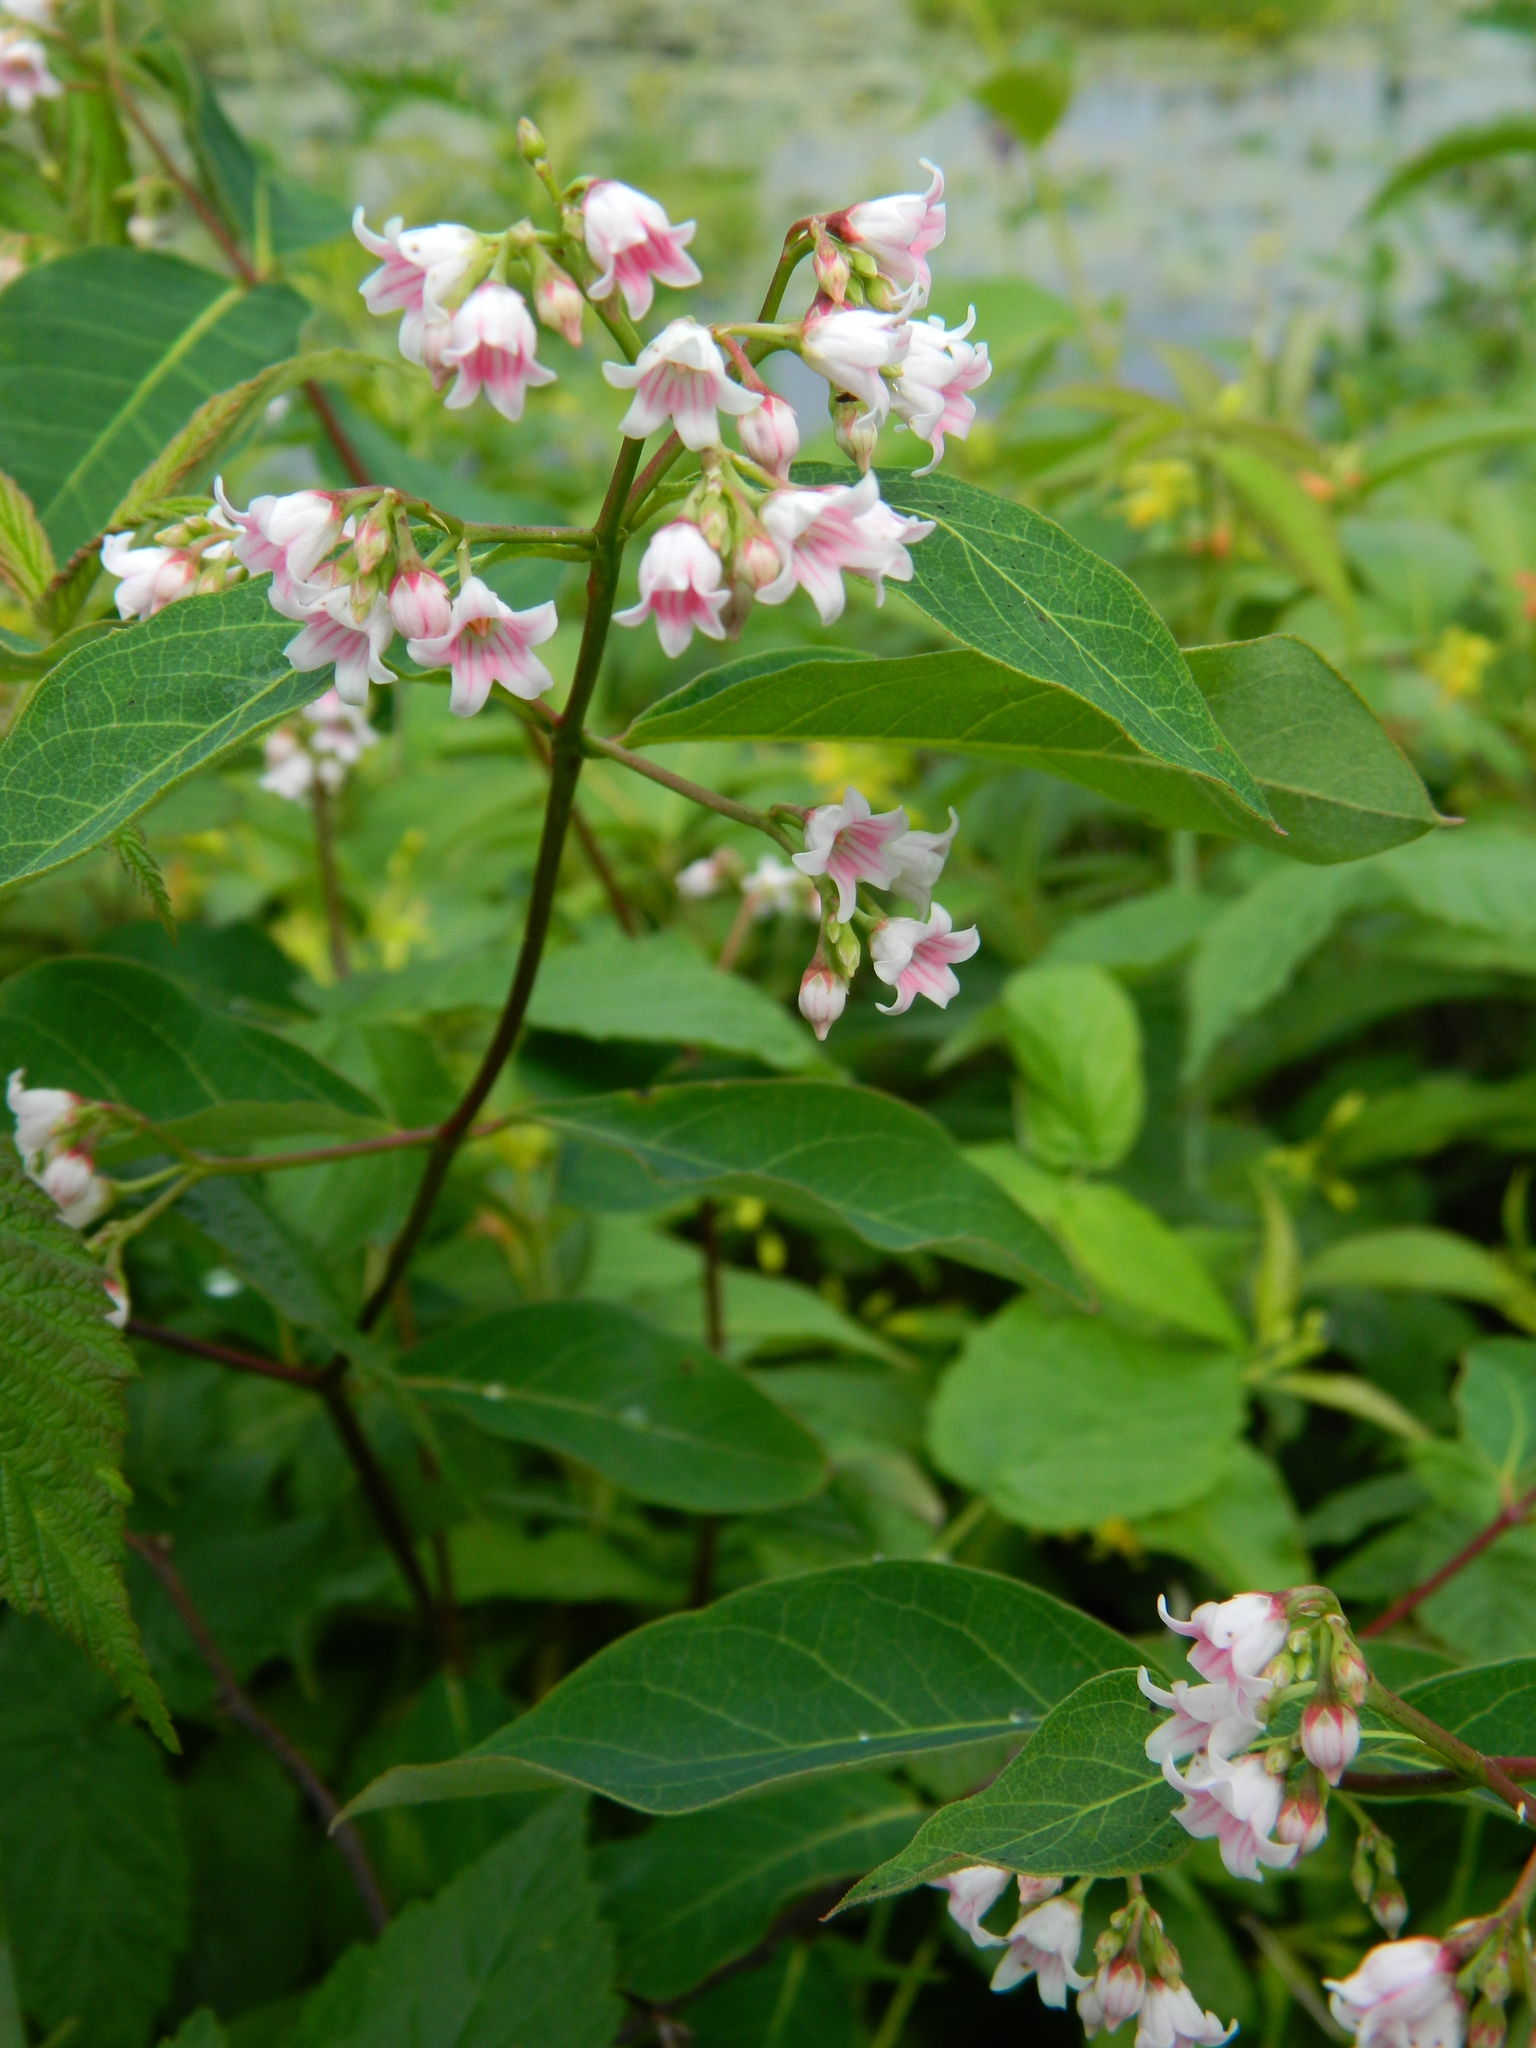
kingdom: Plantae
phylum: Tracheophyta
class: Magnoliopsida
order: Gentianales
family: Apocynaceae
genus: Apocynum
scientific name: Apocynum androsaemifolium
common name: Spreading dogbane
